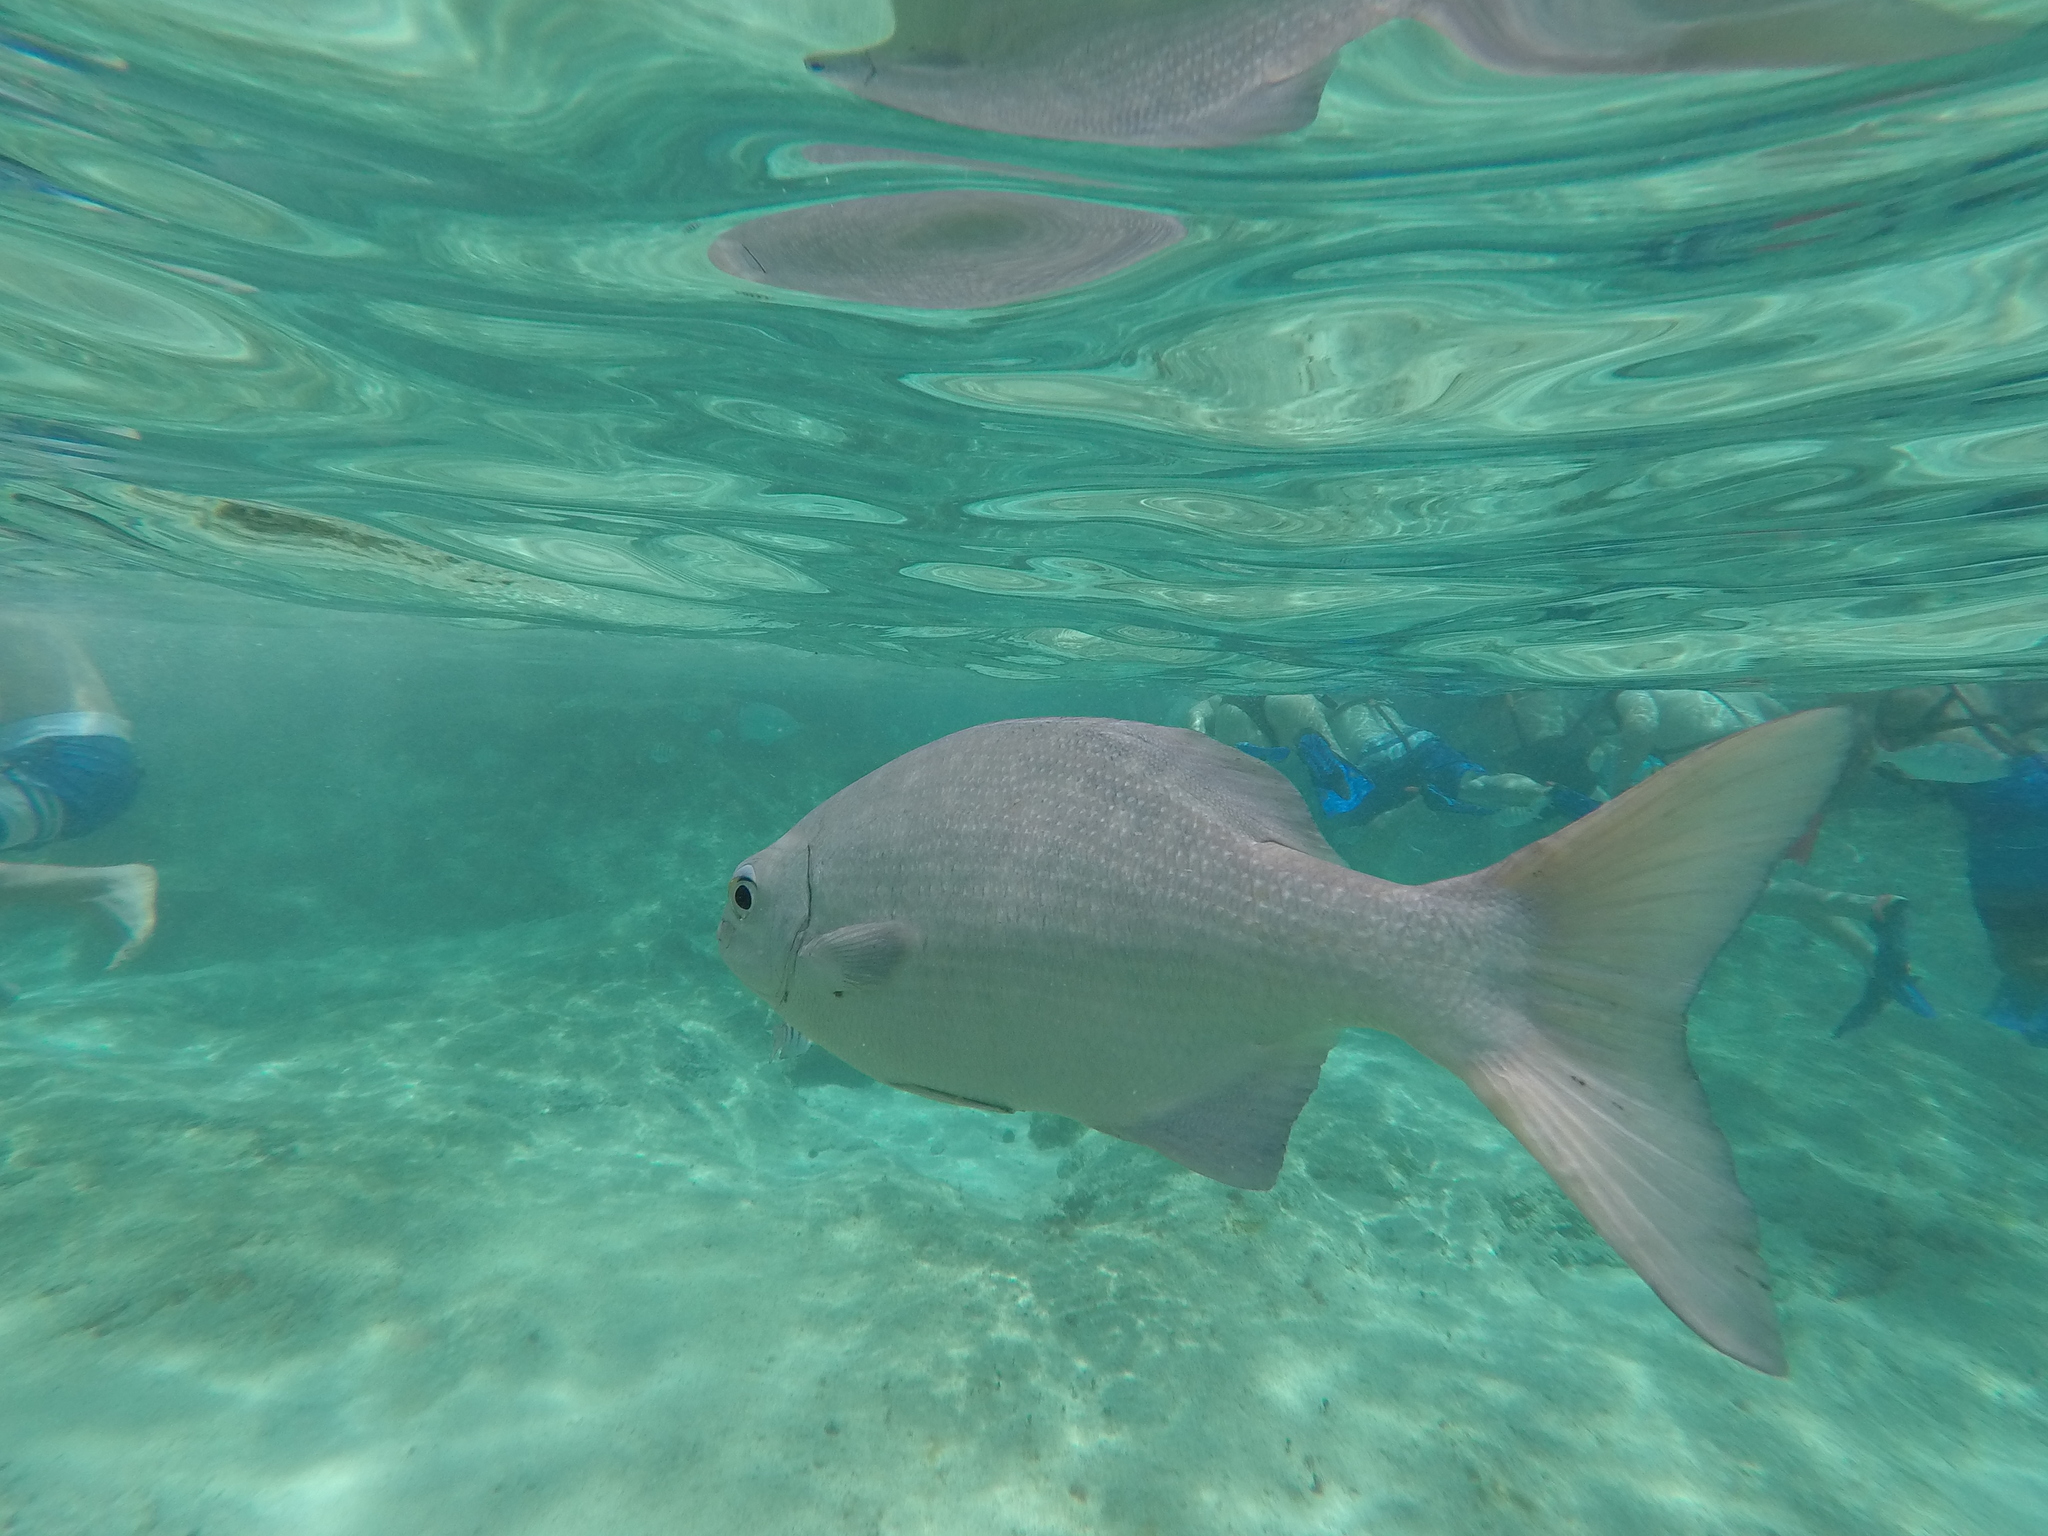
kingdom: Animalia
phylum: Chordata
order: Perciformes
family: Kyphosidae
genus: Kyphosus
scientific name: Kyphosus cinerascens
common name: Topsail drummer
